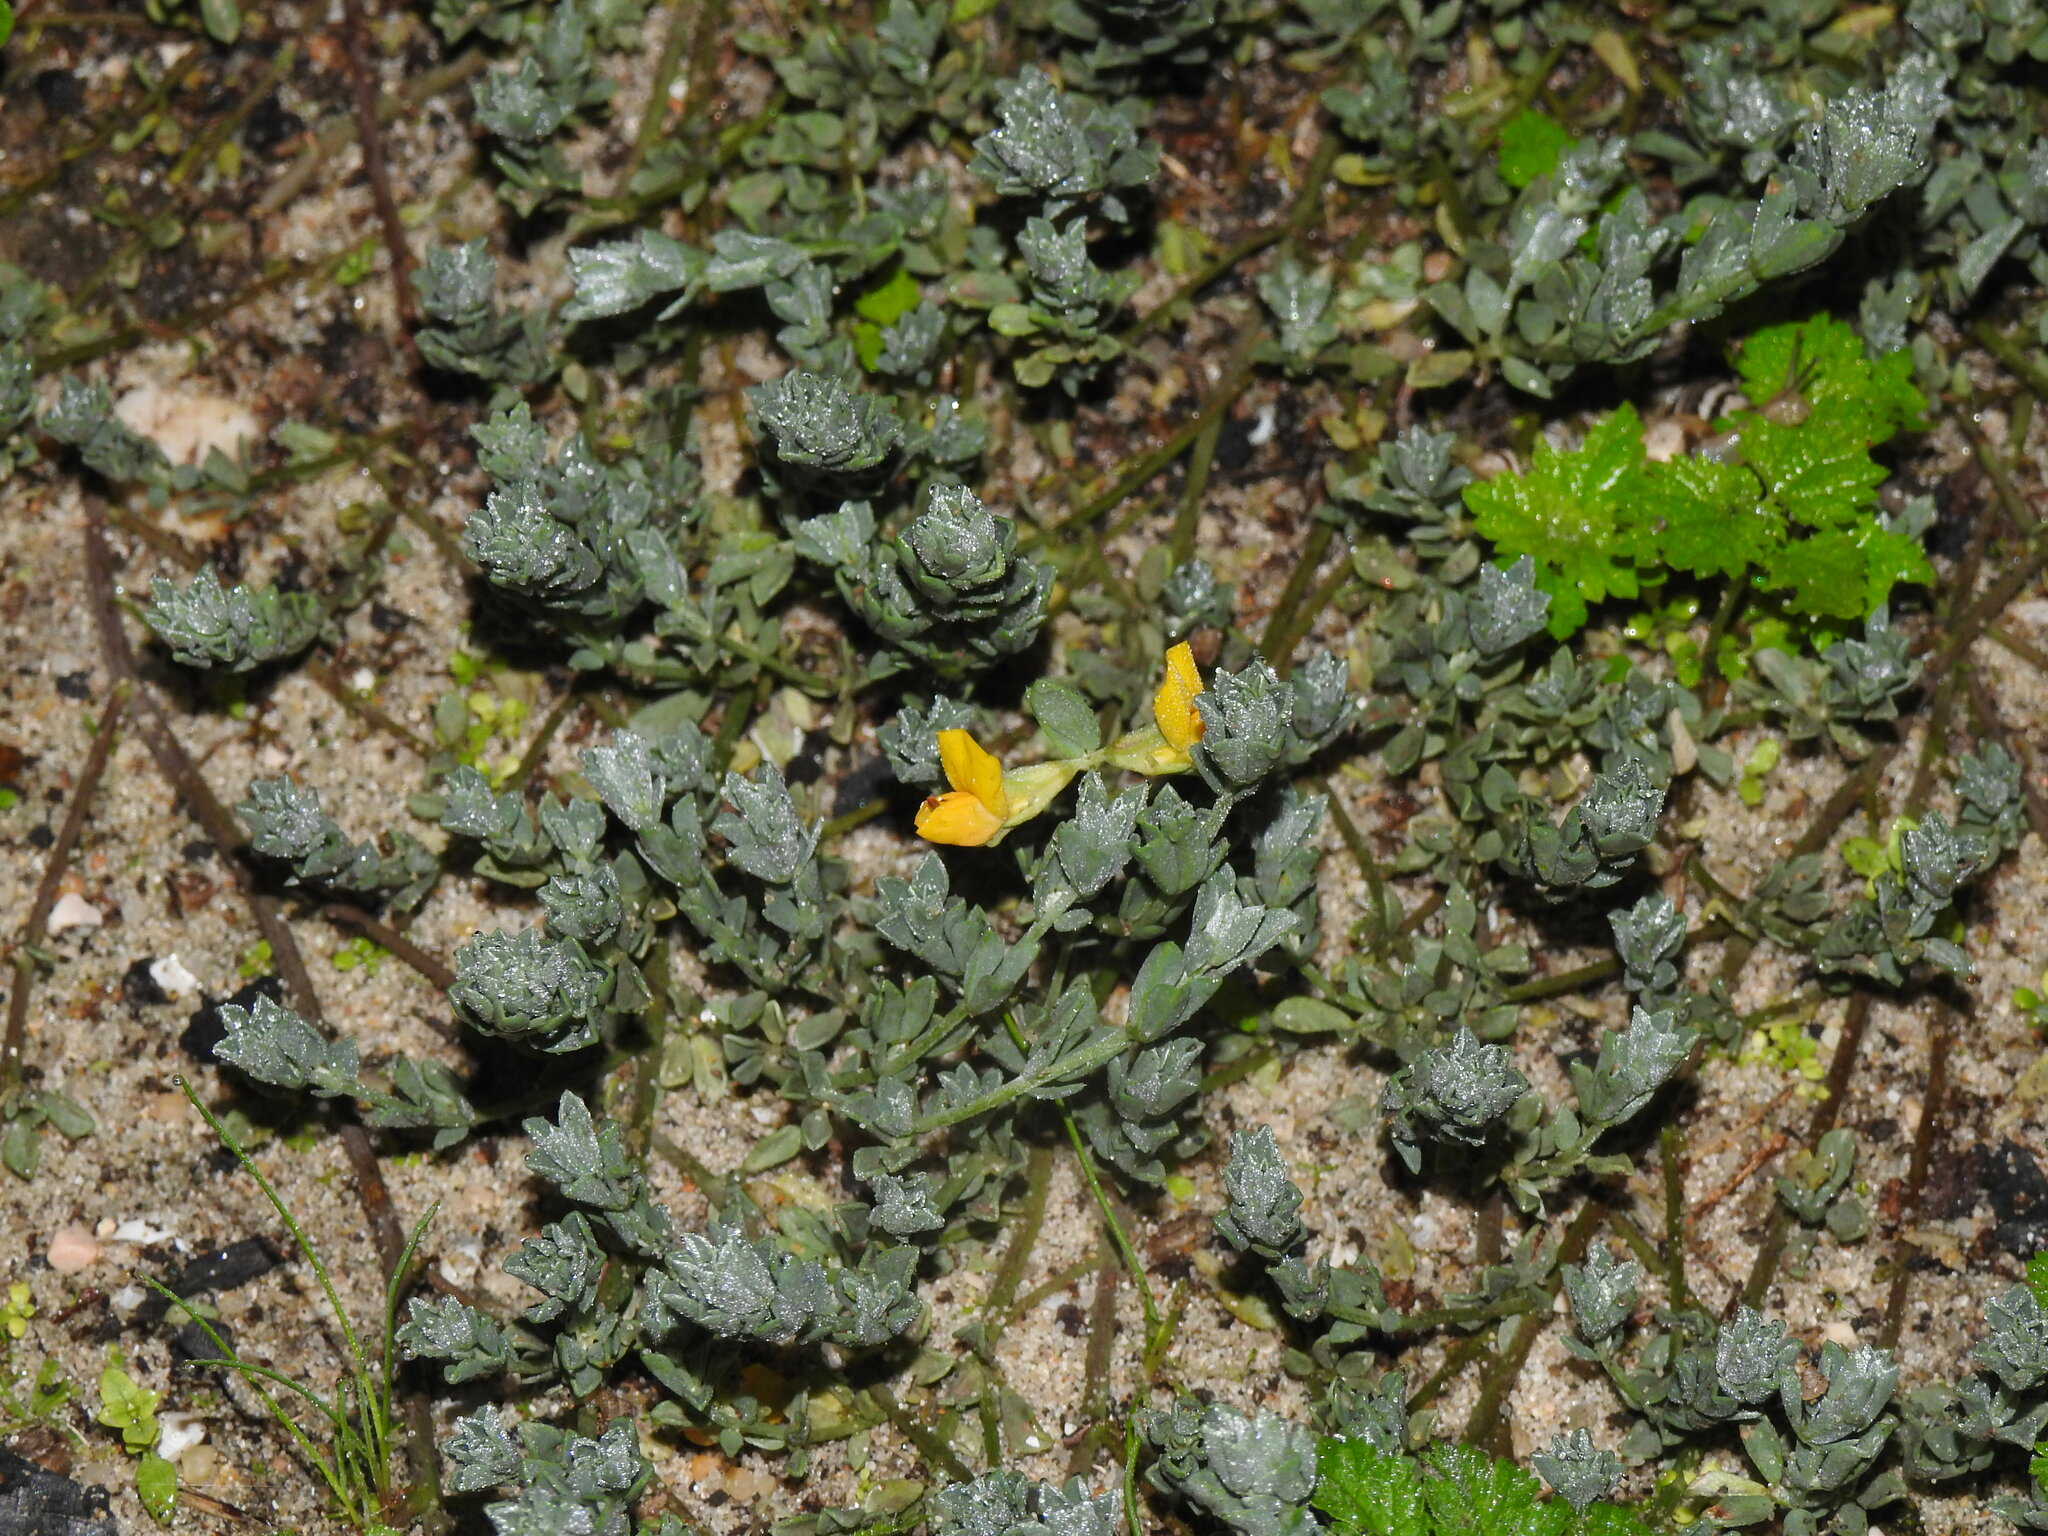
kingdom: Plantae
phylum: Tracheophyta
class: Magnoliopsida
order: Fabales
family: Fabaceae
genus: Lotus
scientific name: Lotus creticus
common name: Cretan bird's-foot trefoil
